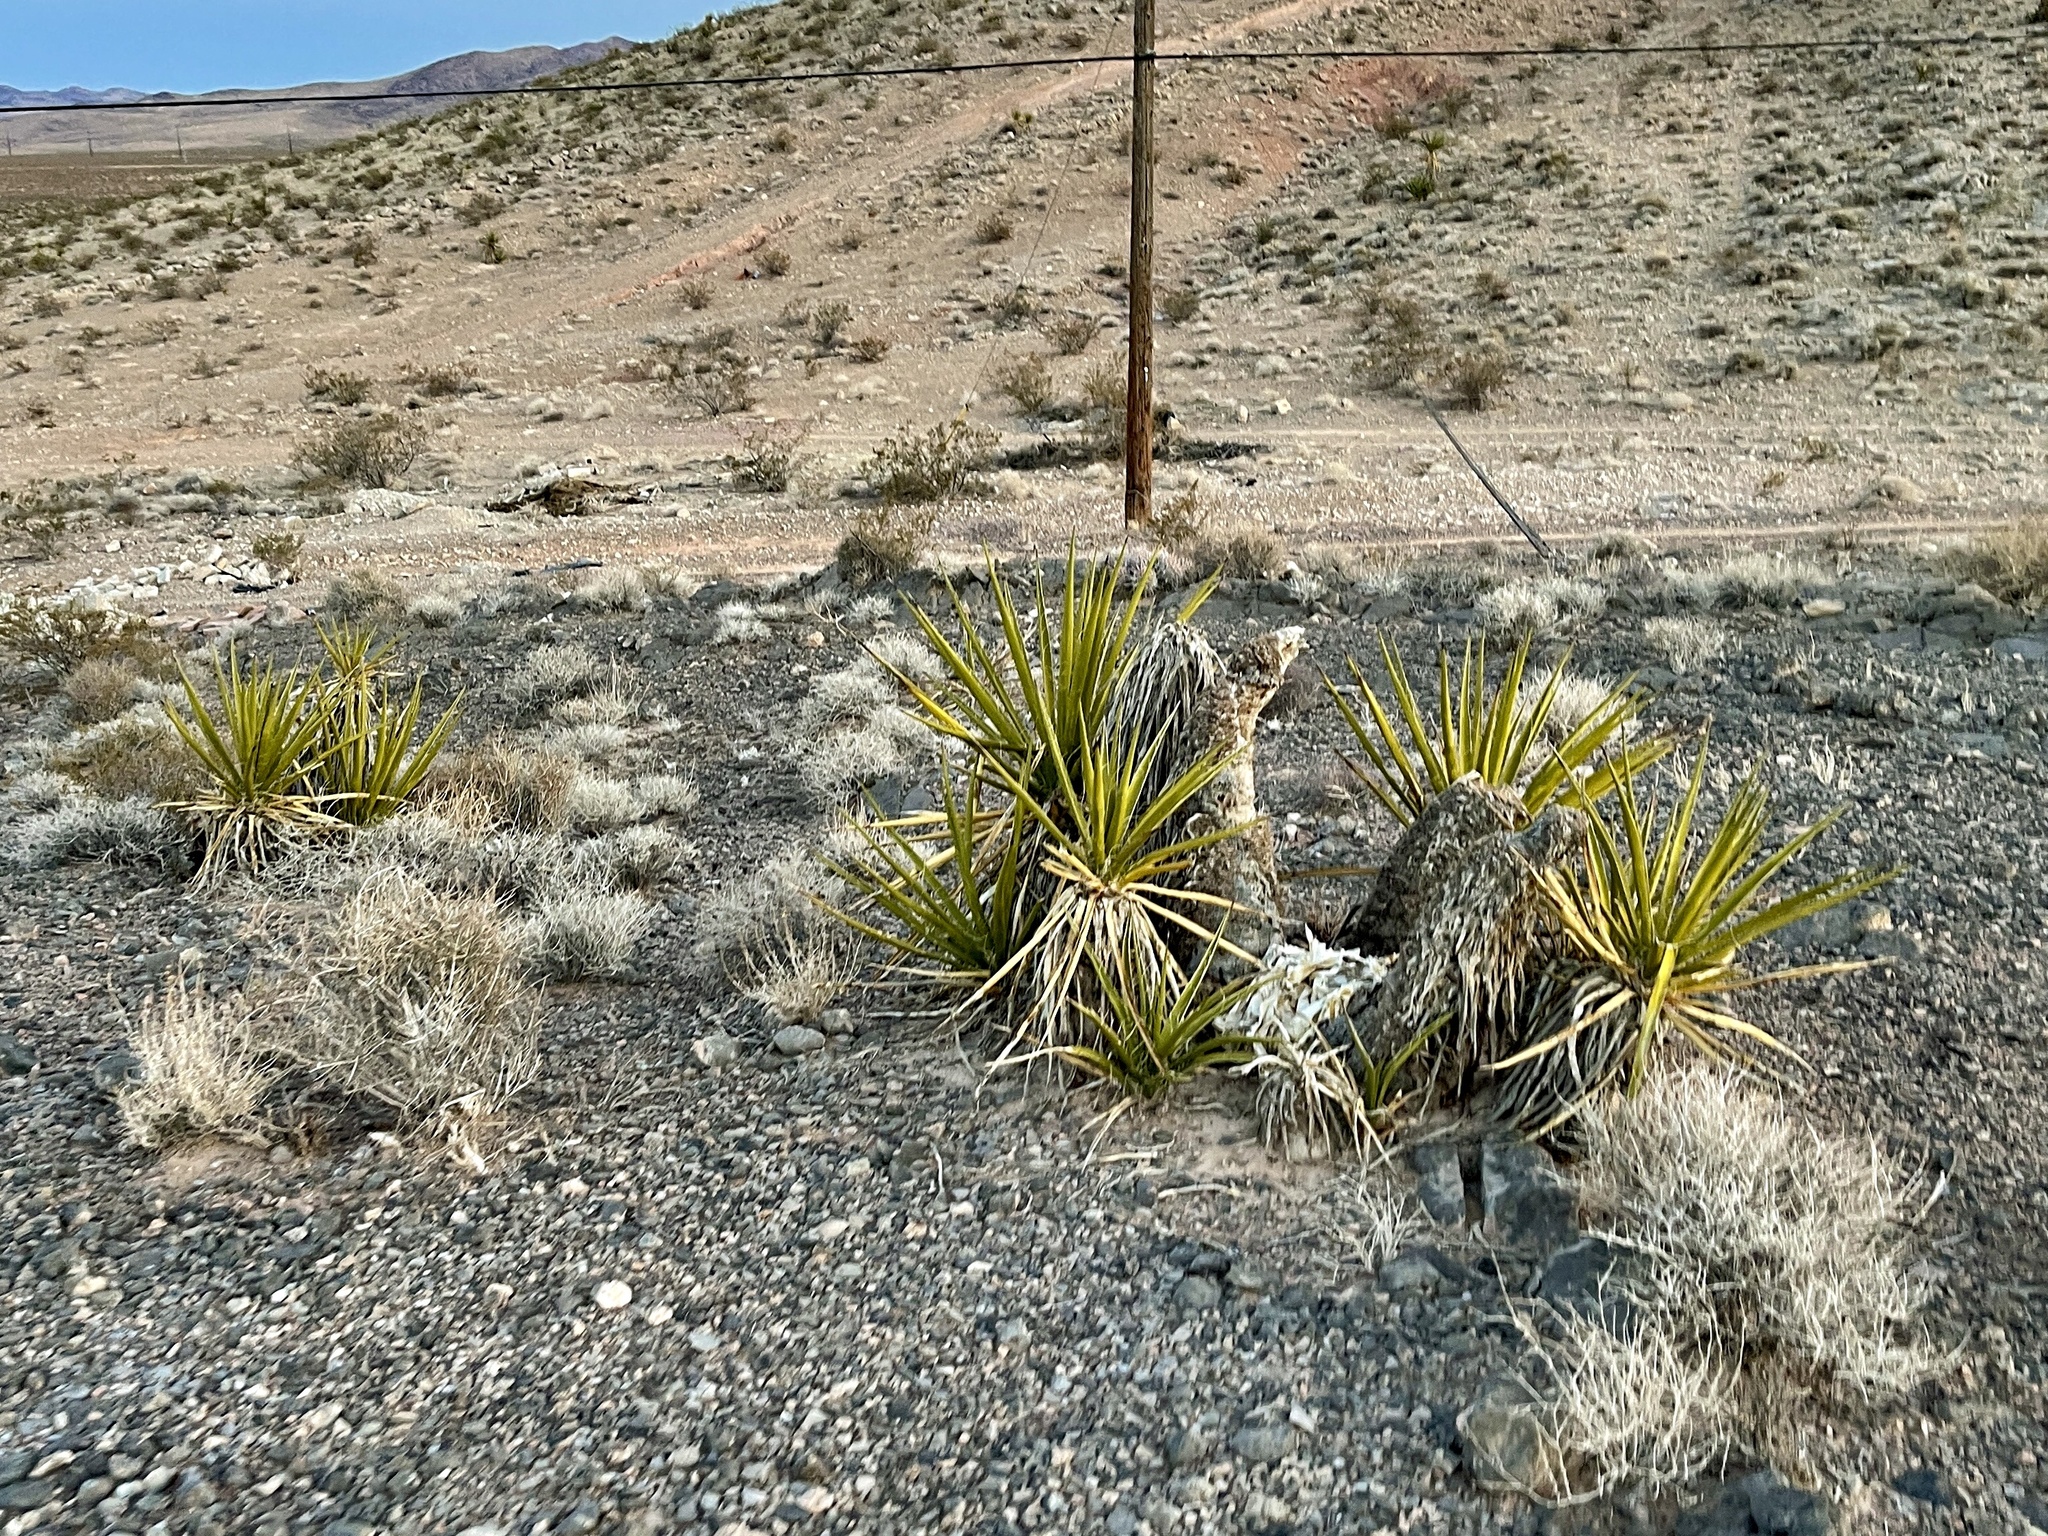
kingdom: Plantae
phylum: Tracheophyta
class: Liliopsida
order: Asparagales
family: Asparagaceae
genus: Yucca
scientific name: Yucca schidigera
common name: Mojave yucca
